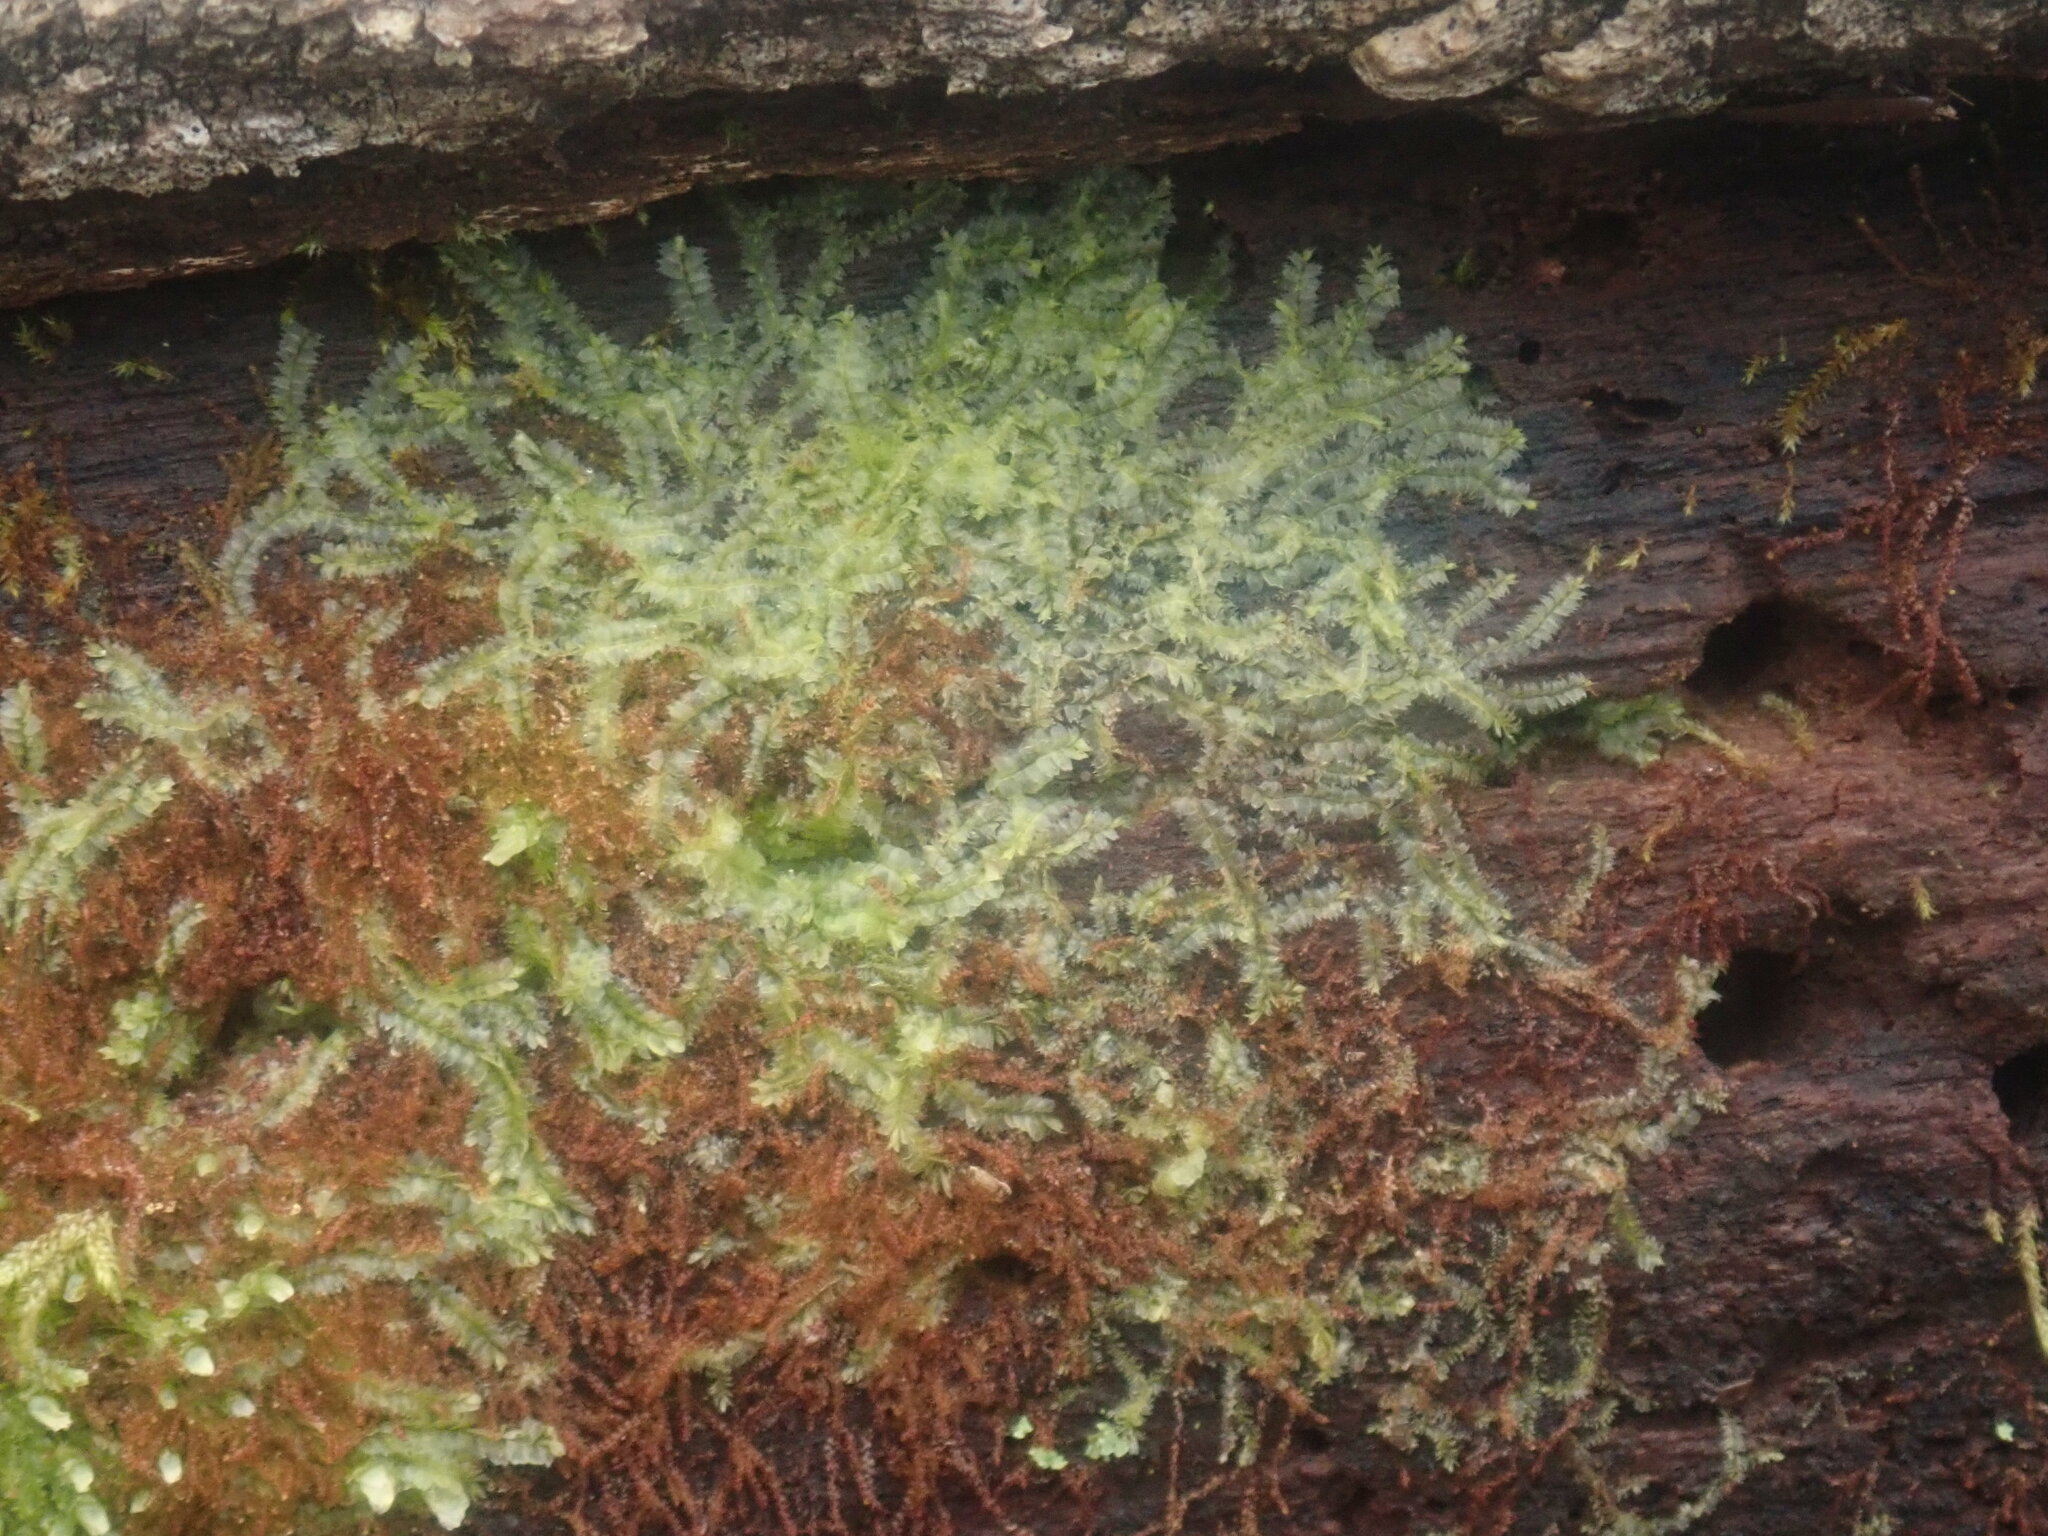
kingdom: Plantae
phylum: Marchantiophyta
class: Jungermanniopsida
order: Jungermanniales
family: Lophocoleaceae
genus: Lophocolea
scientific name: Lophocolea heterophylla
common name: Variable-leaved crestwort
